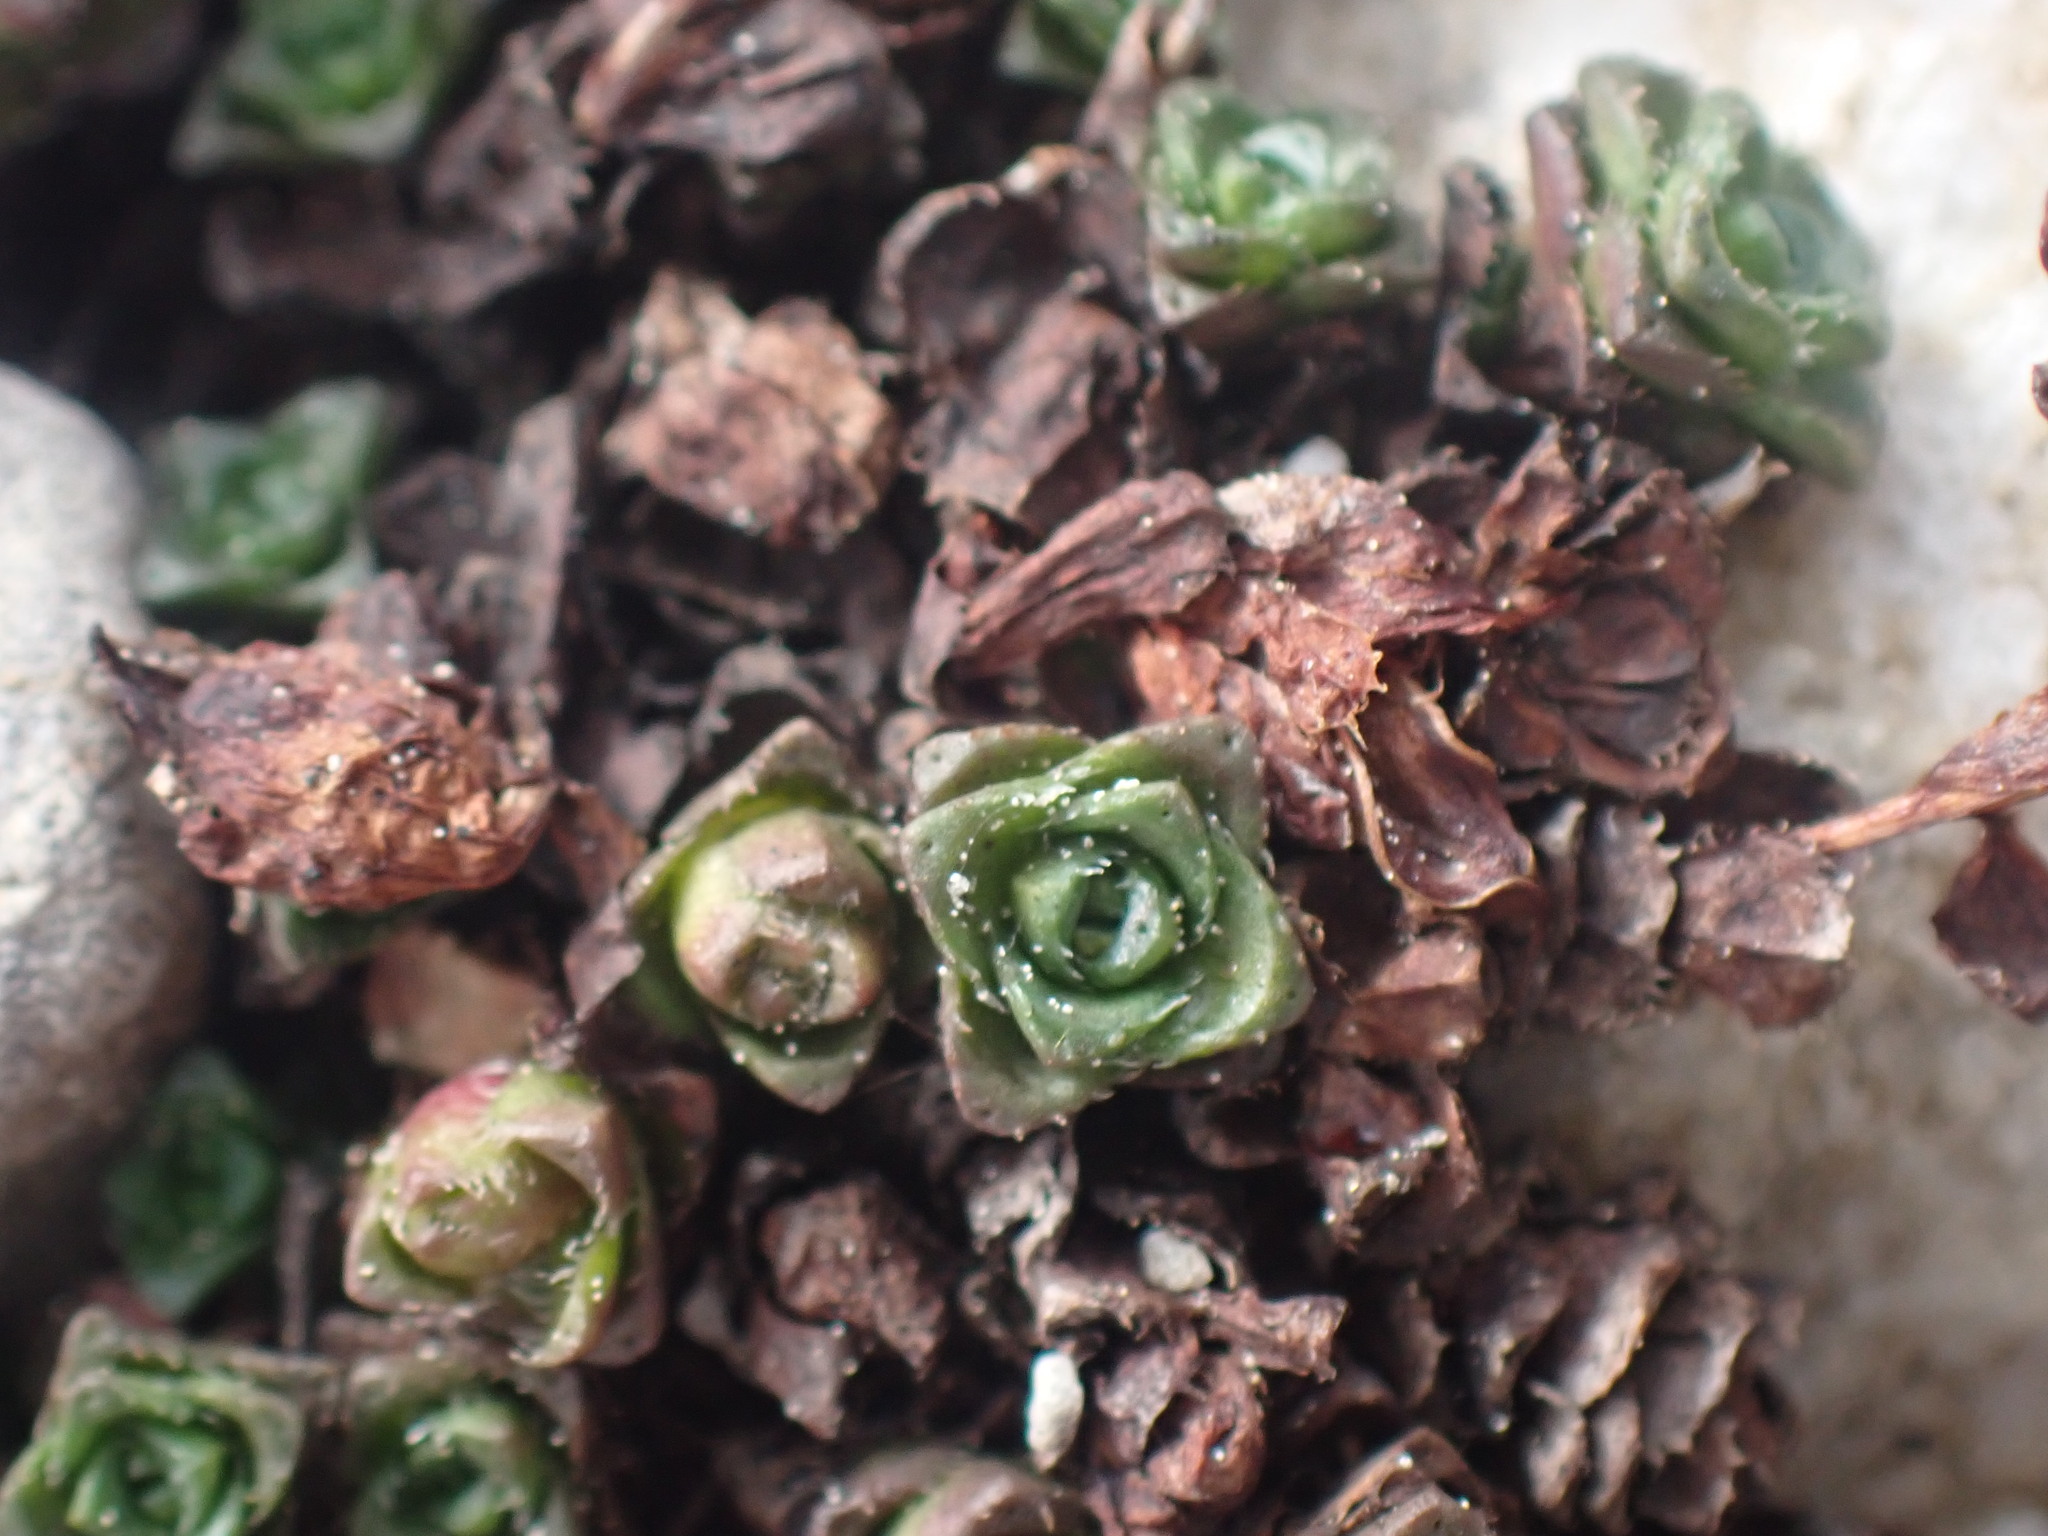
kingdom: Plantae
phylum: Tracheophyta
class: Magnoliopsida
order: Saxifragales
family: Saxifragaceae
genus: Saxifraga
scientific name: Saxifraga oppositifolia
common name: Purple saxifrage
